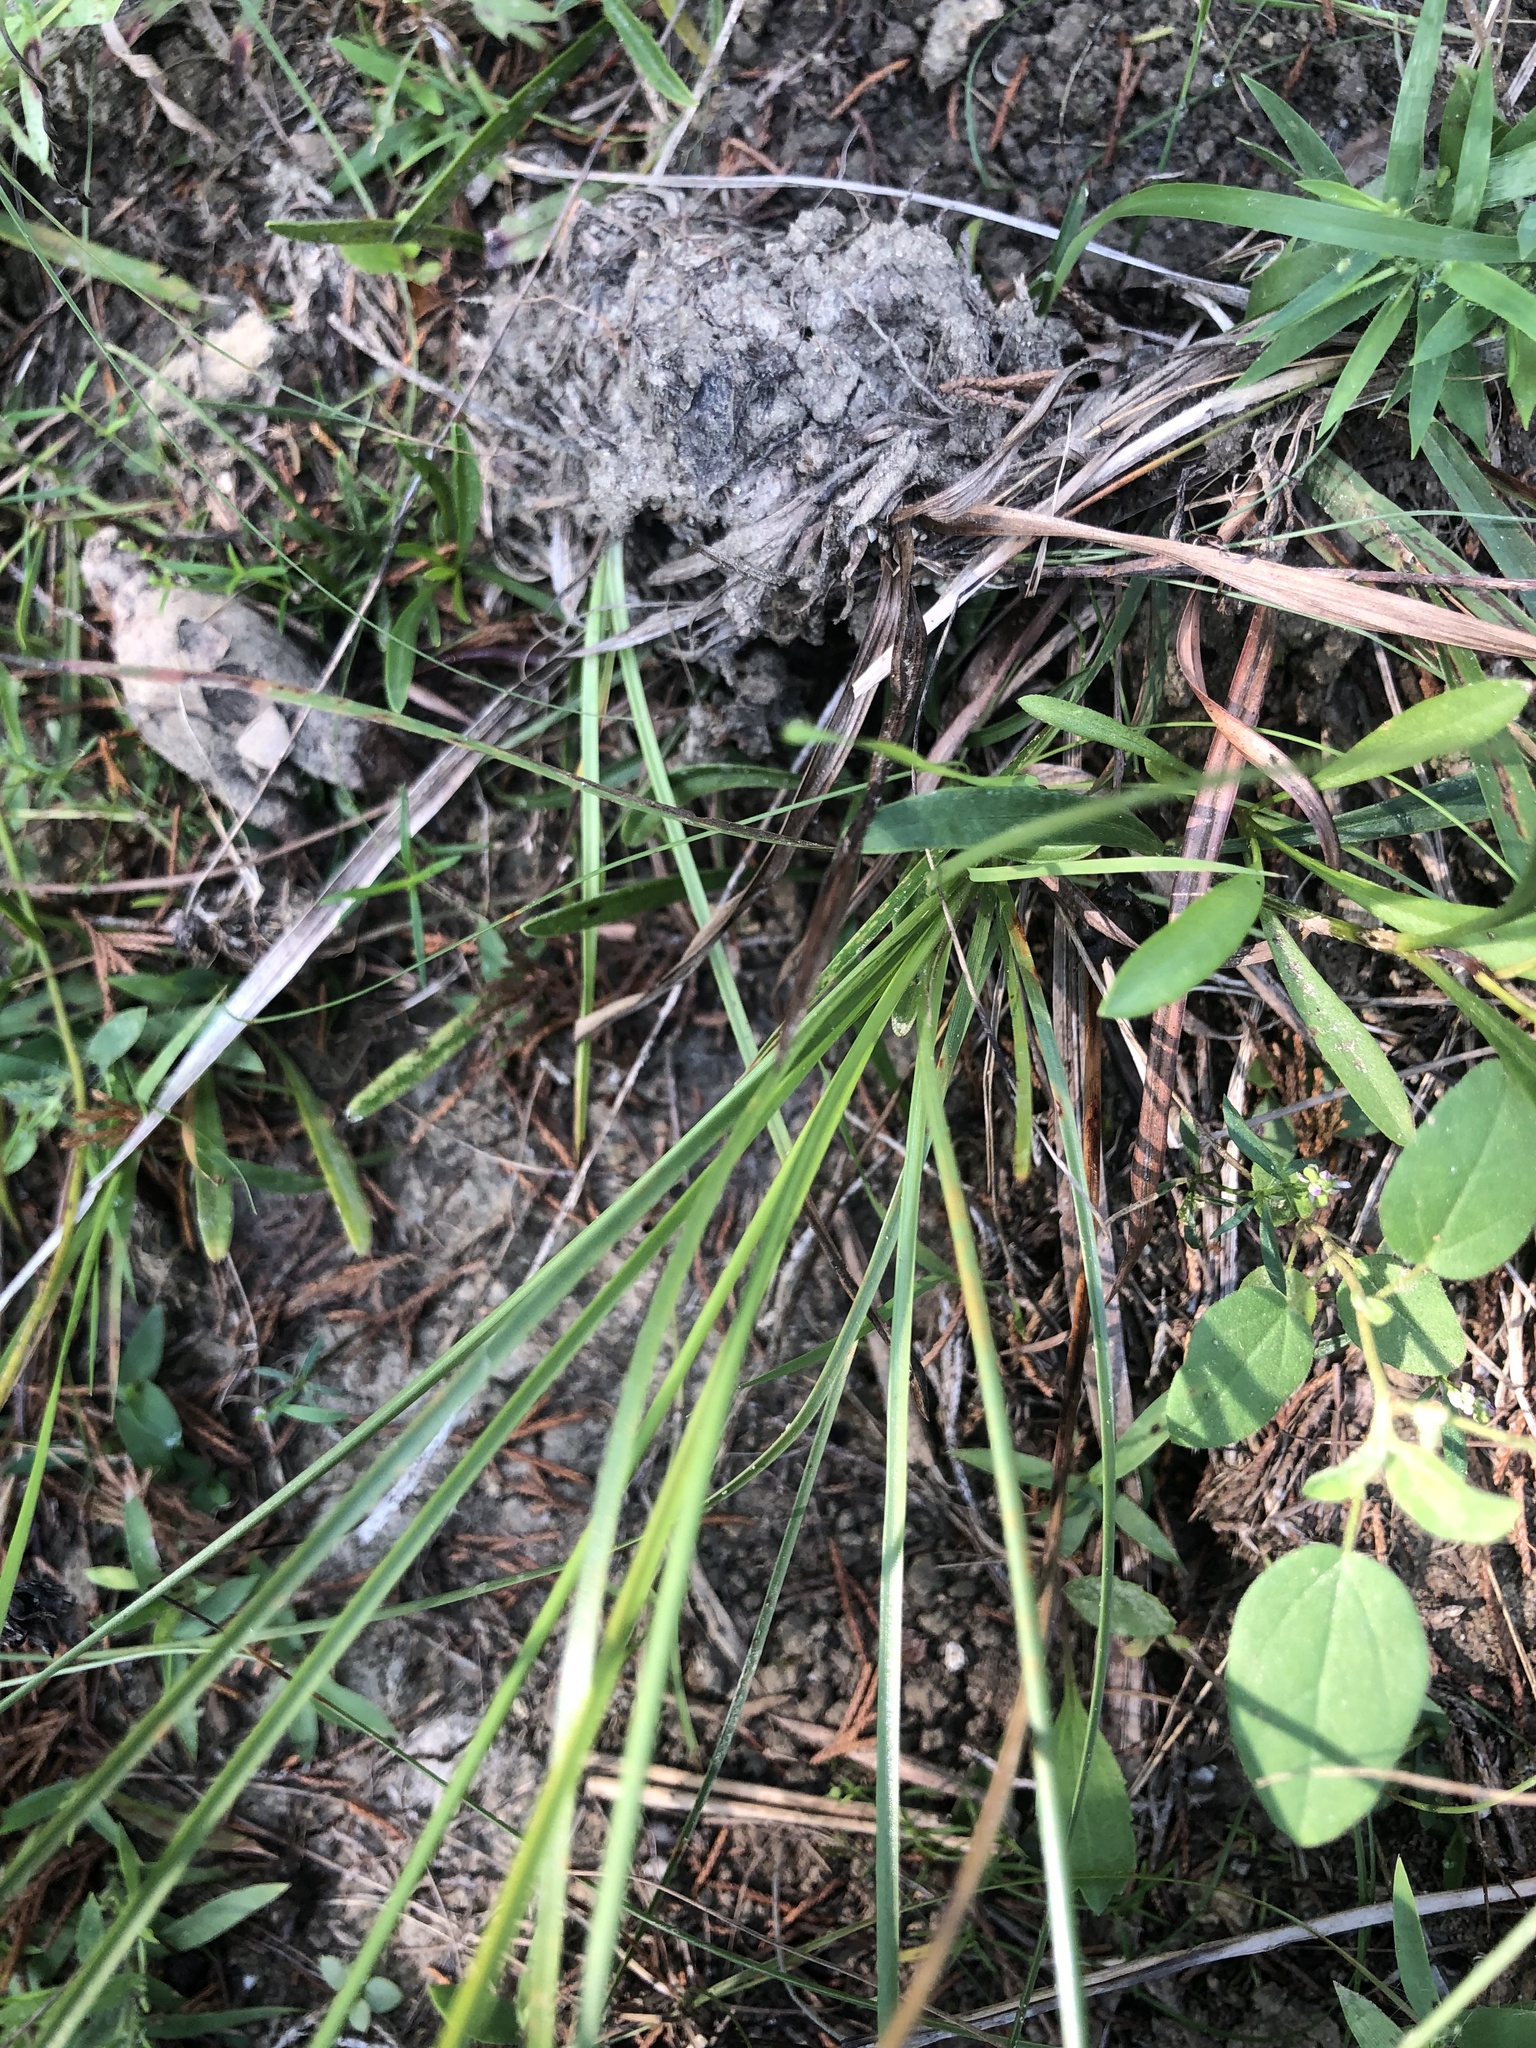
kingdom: Plantae
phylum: Tracheophyta
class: Liliopsida
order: Poales
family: Cyperaceae
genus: Fimbristylis
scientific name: Fimbristylis puberula
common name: Hairy fimbristylis
